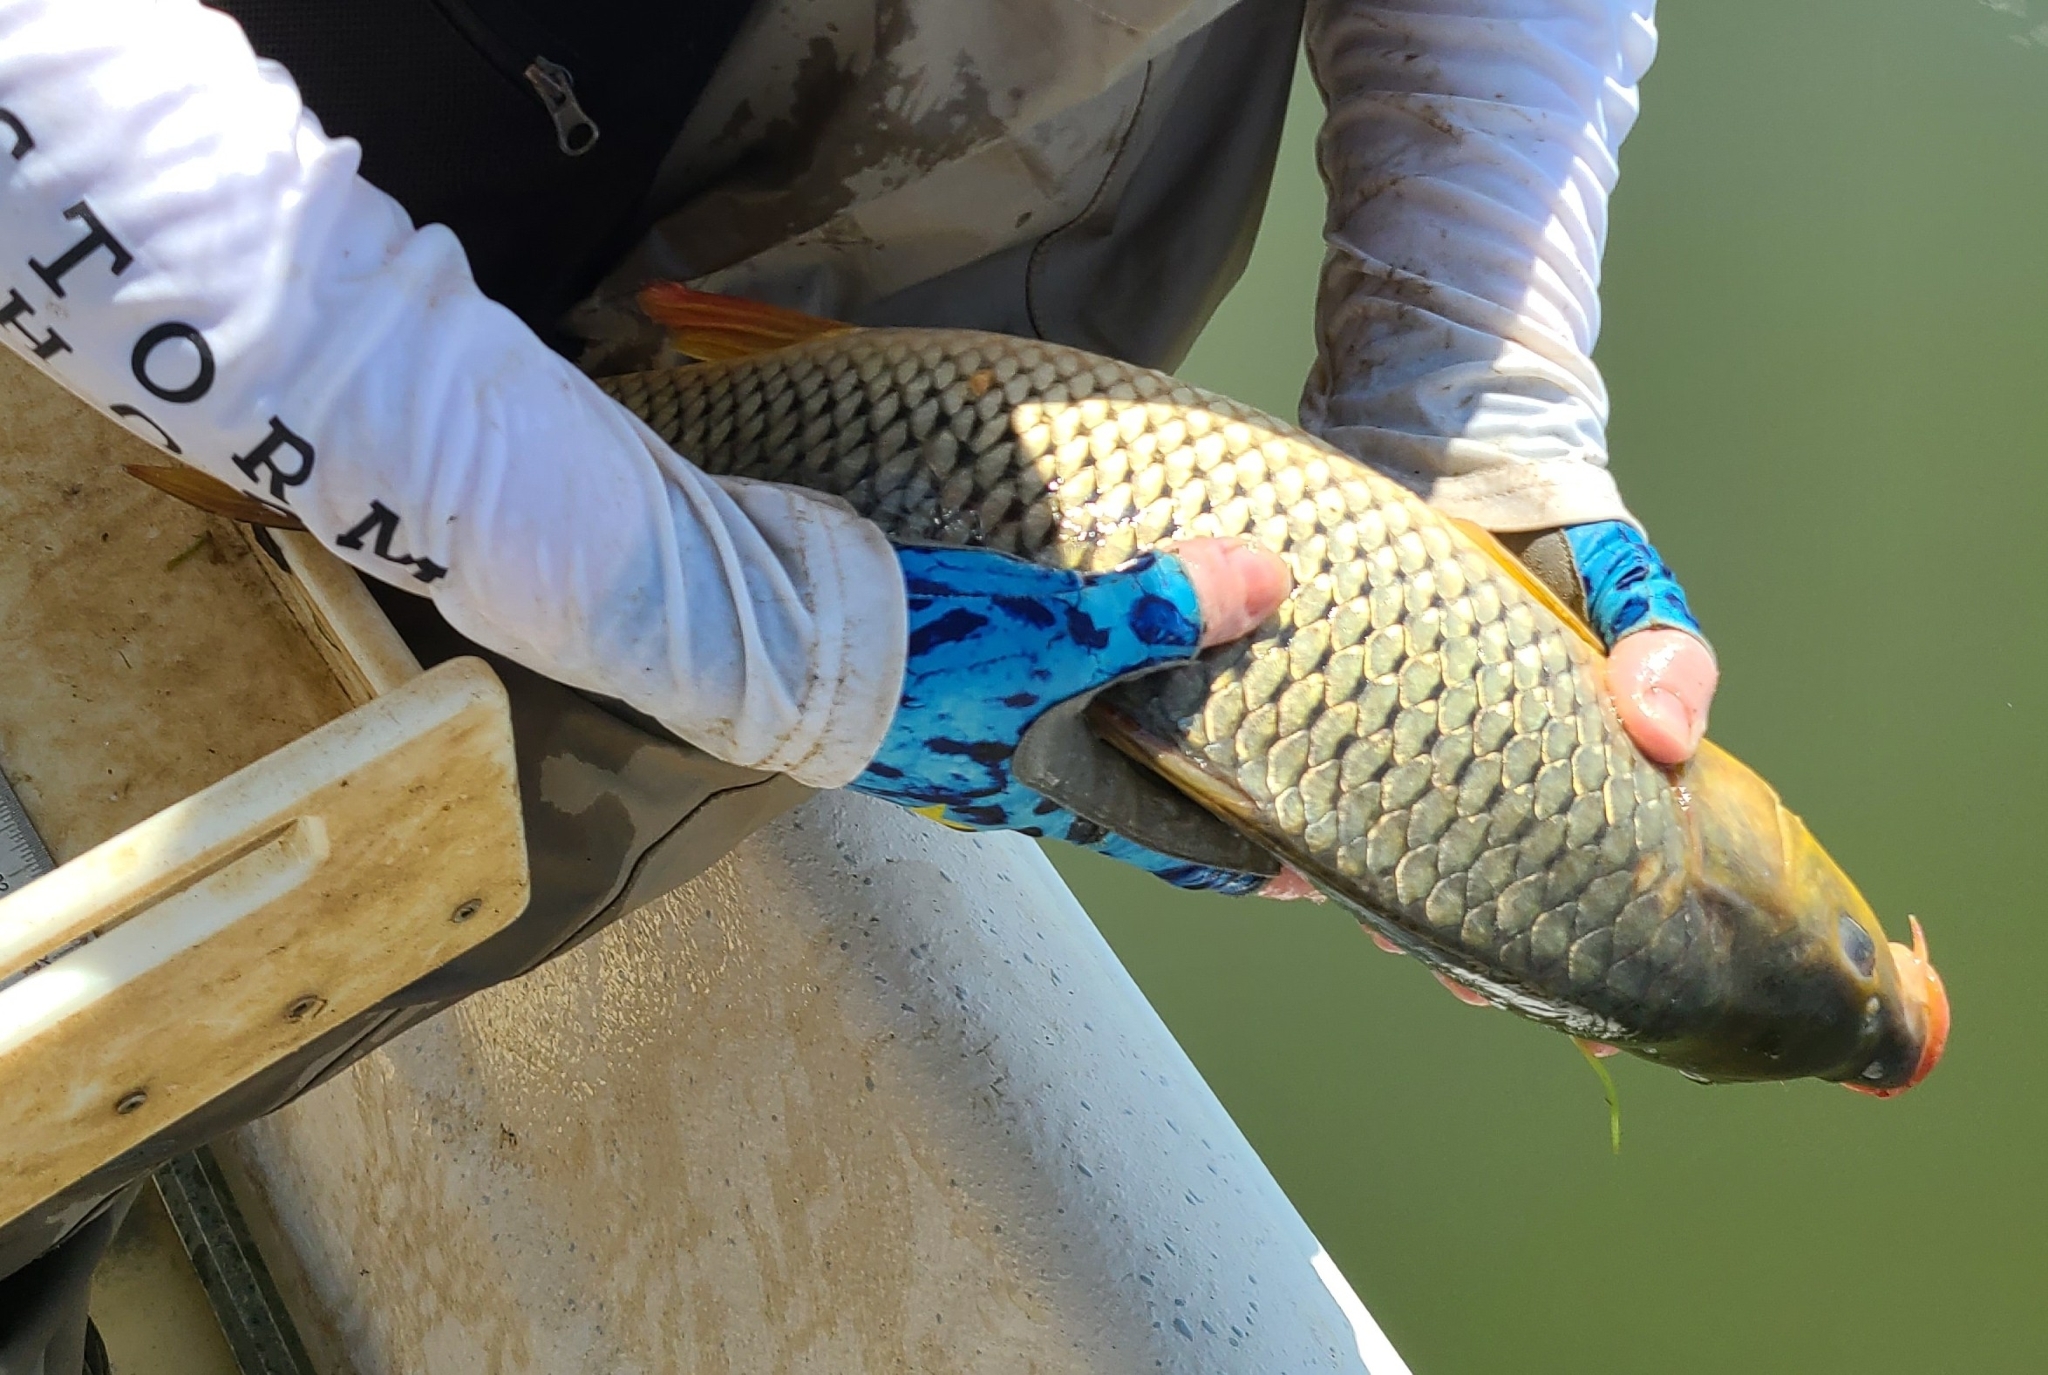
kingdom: Animalia
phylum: Chordata
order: Cypriniformes
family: Cyprinidae
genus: Cyprinus
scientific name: Cyprinus carpio
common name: Common carp
